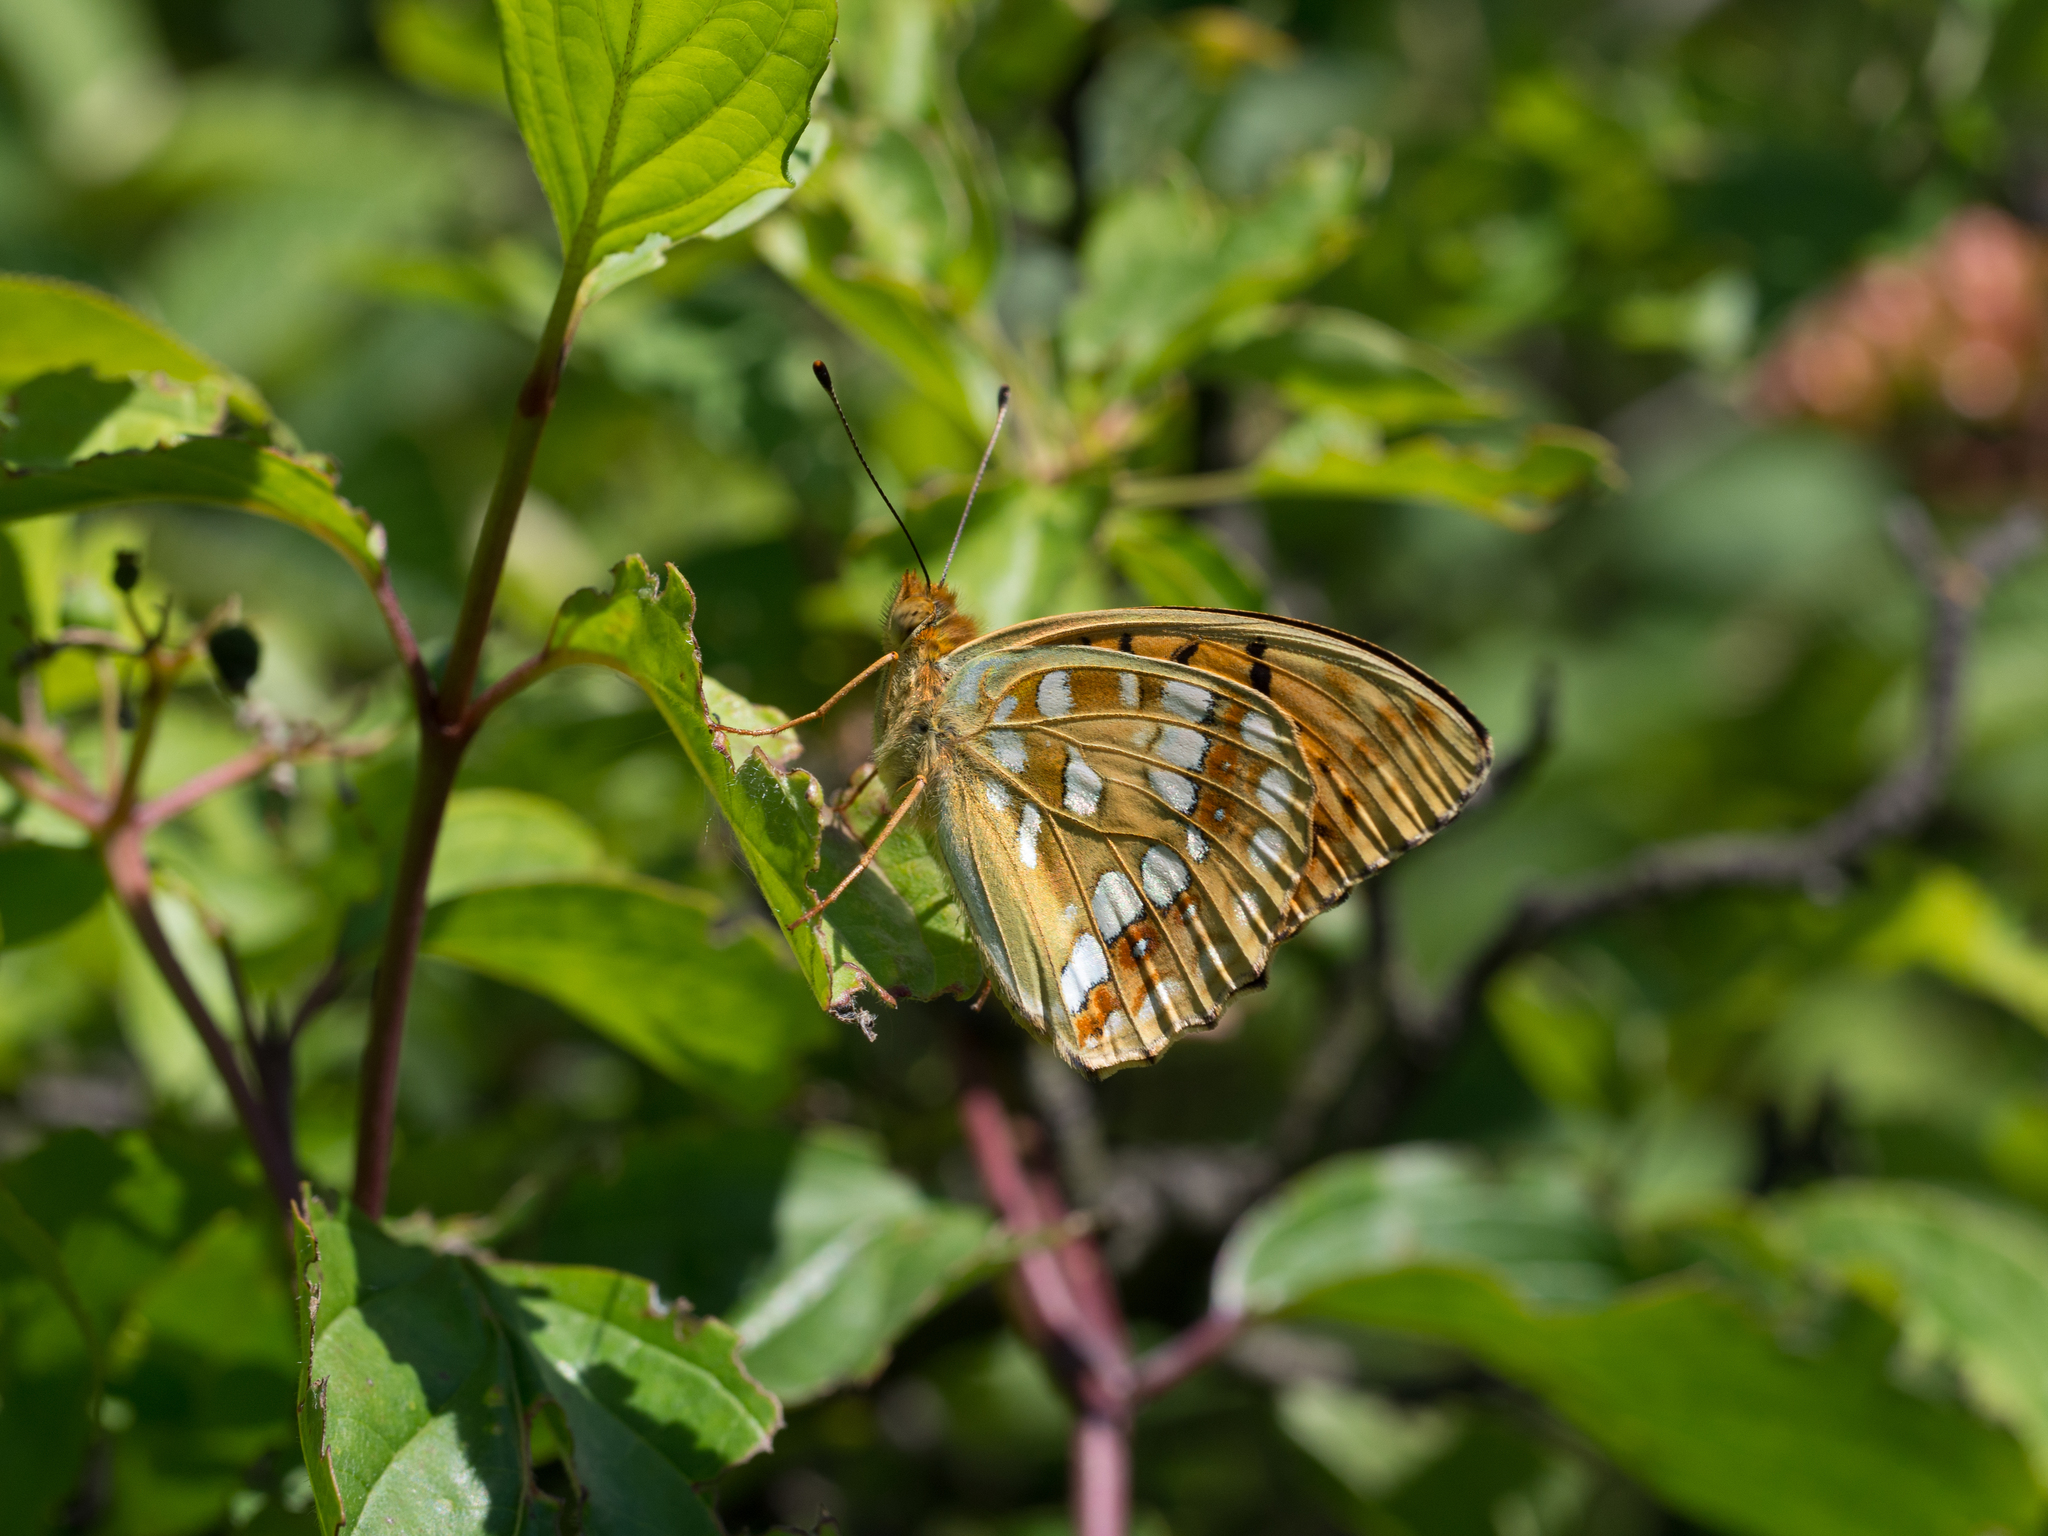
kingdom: Animalia
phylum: Arthropoda
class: Insecta
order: Lepidoptera
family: Nymphalidae
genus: Fabriciana
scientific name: Fabriciana adippe
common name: High brown fritillary
